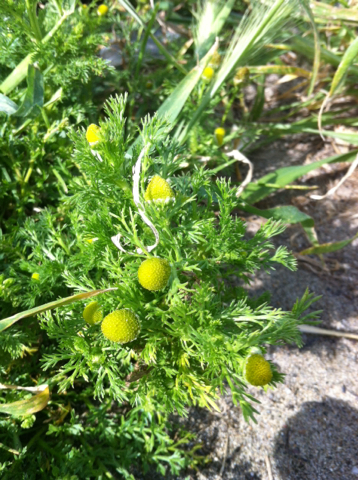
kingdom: Plantae
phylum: Tracheophyta
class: Magnoliopsida
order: Asterales
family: Asteraceae
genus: Matricaria
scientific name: Matricaria discoidea
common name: Disc mayweed
